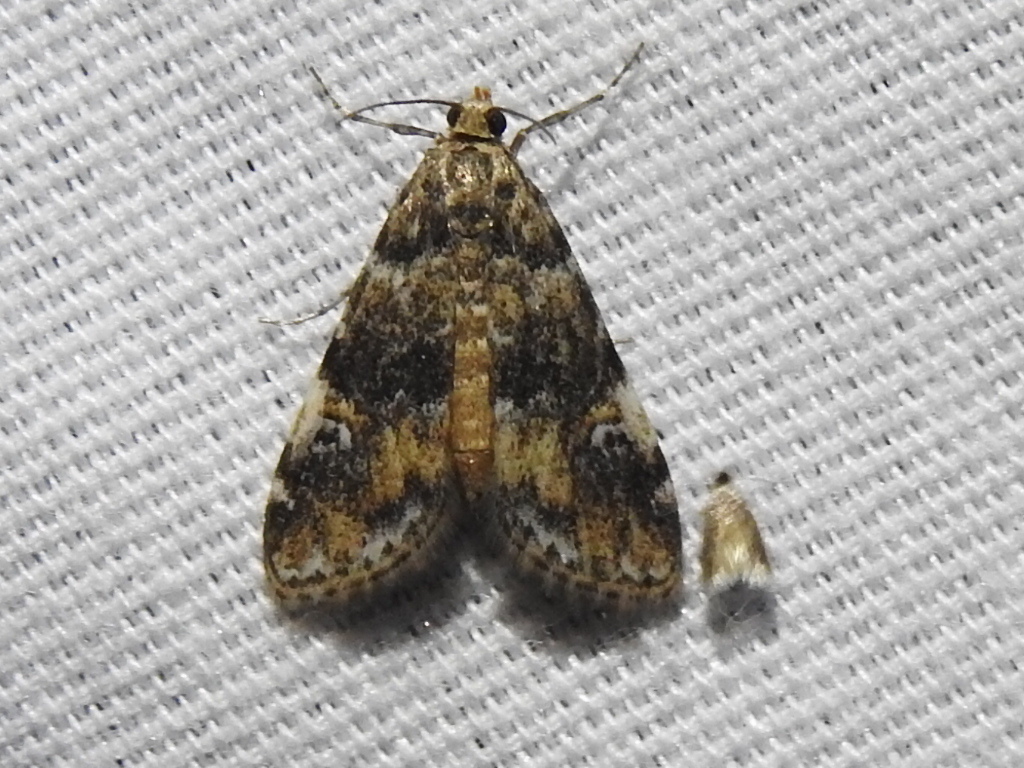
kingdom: Animalia
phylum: Arthropoda
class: Insecta
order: Lepidoptera
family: Crambidae
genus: Elophila
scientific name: Elophila obliteralis
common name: Waterlily leafcutter moth
